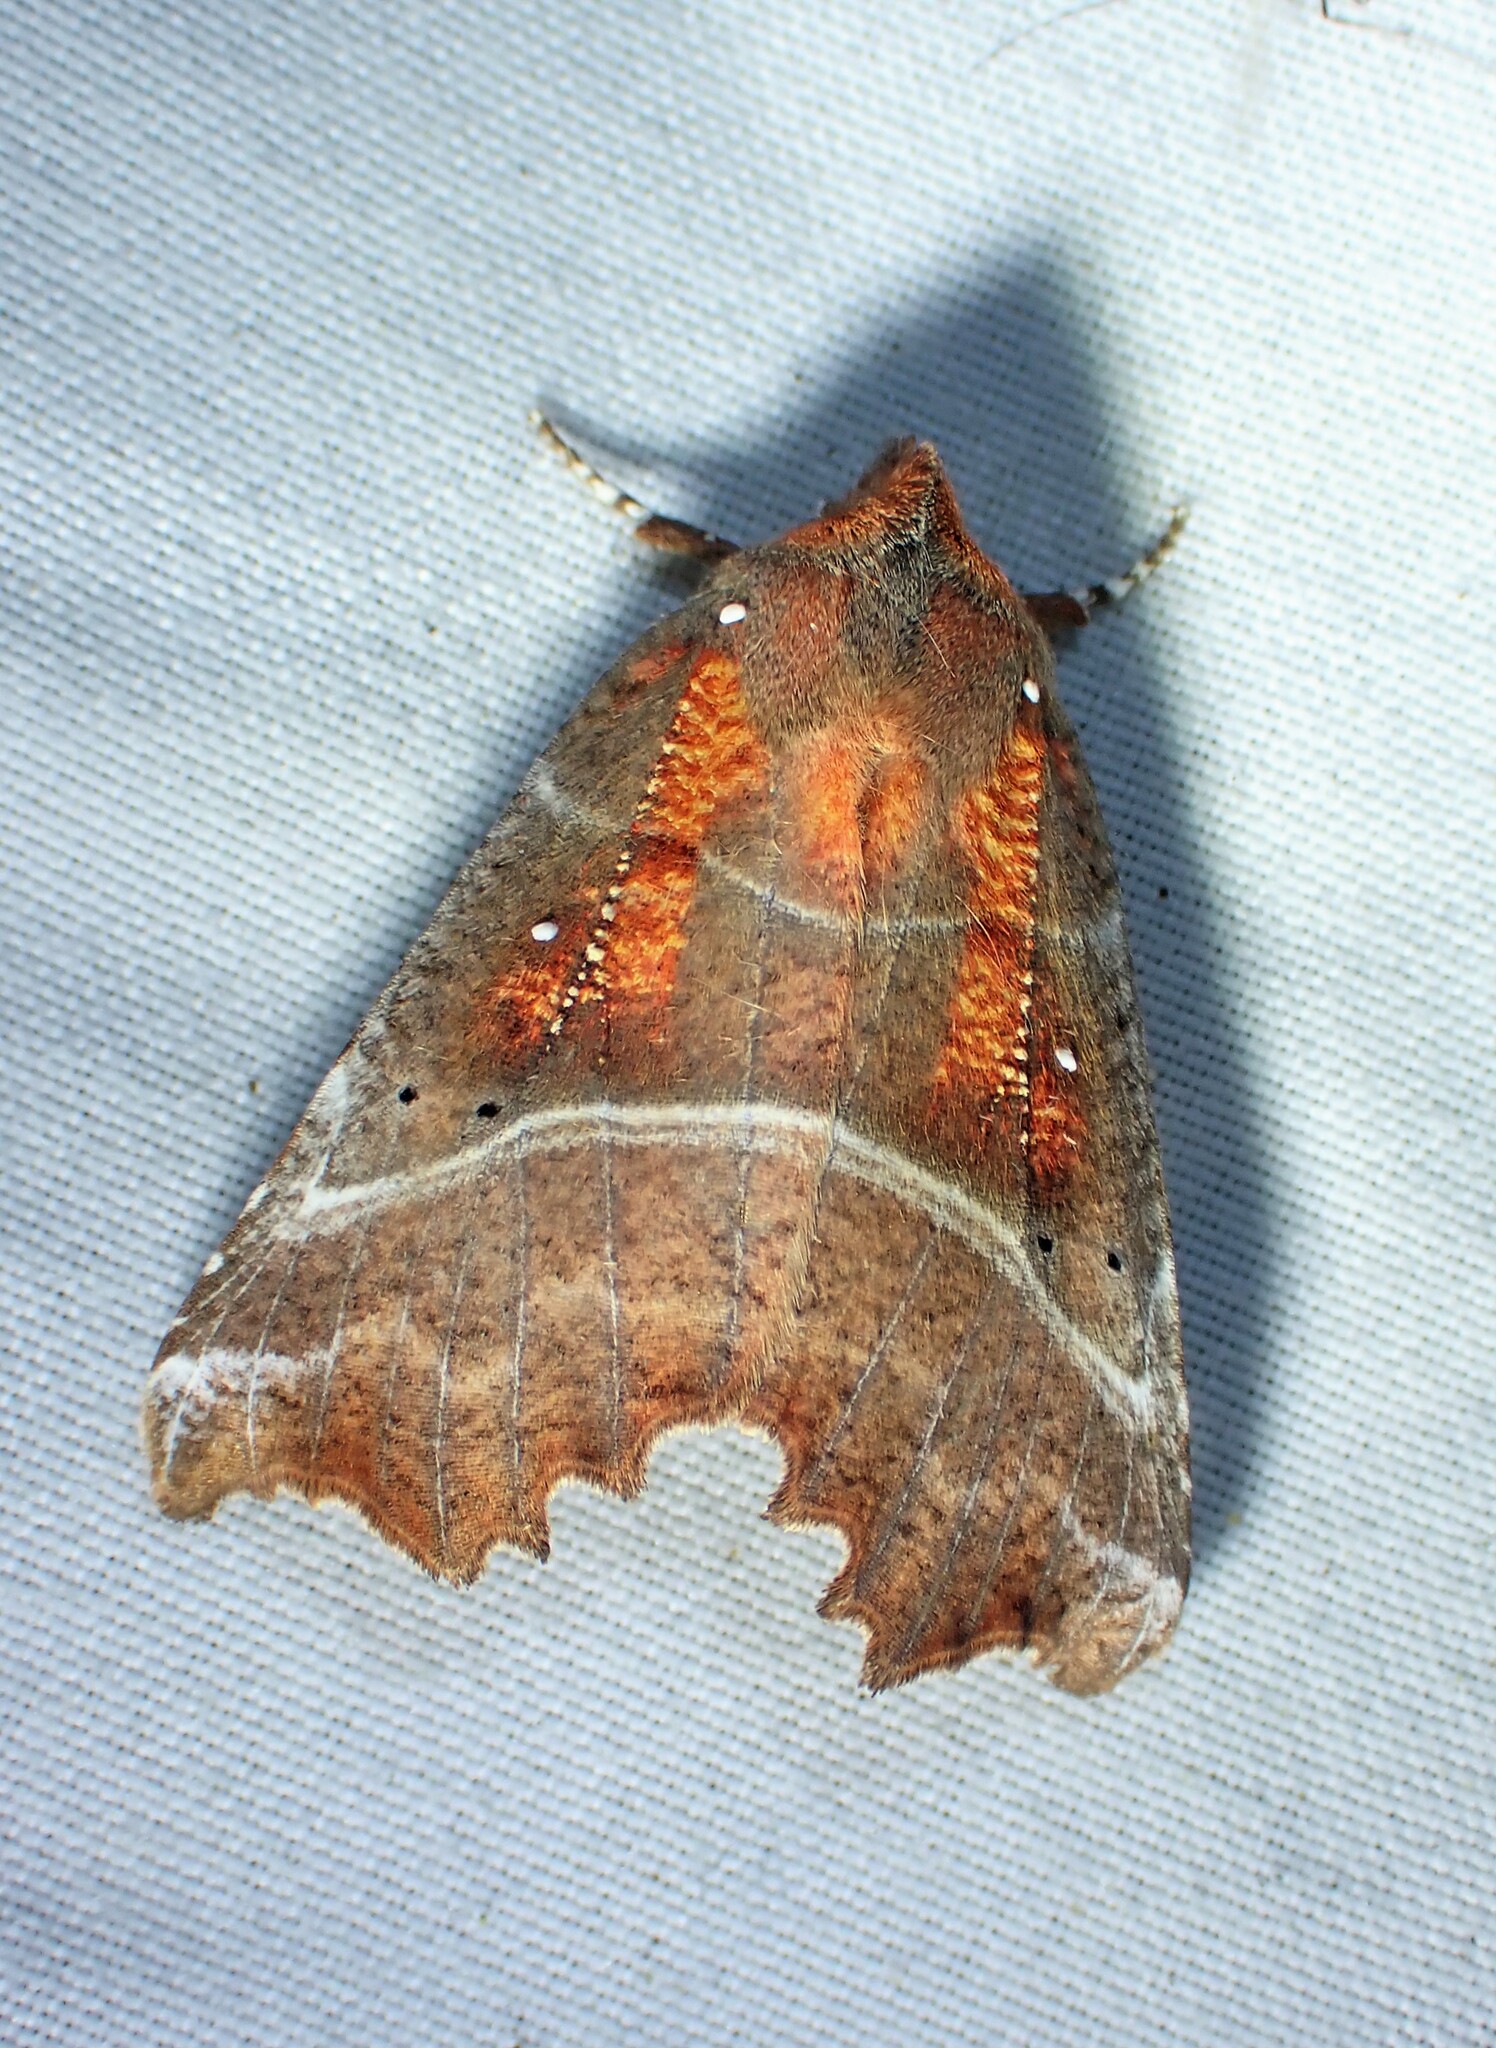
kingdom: Animalia
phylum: Arthropoda
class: Insecta
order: Lepidoptera
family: Erebidae
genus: Scoliopteryx
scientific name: Scoliopteryx libatrix
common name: Herald
